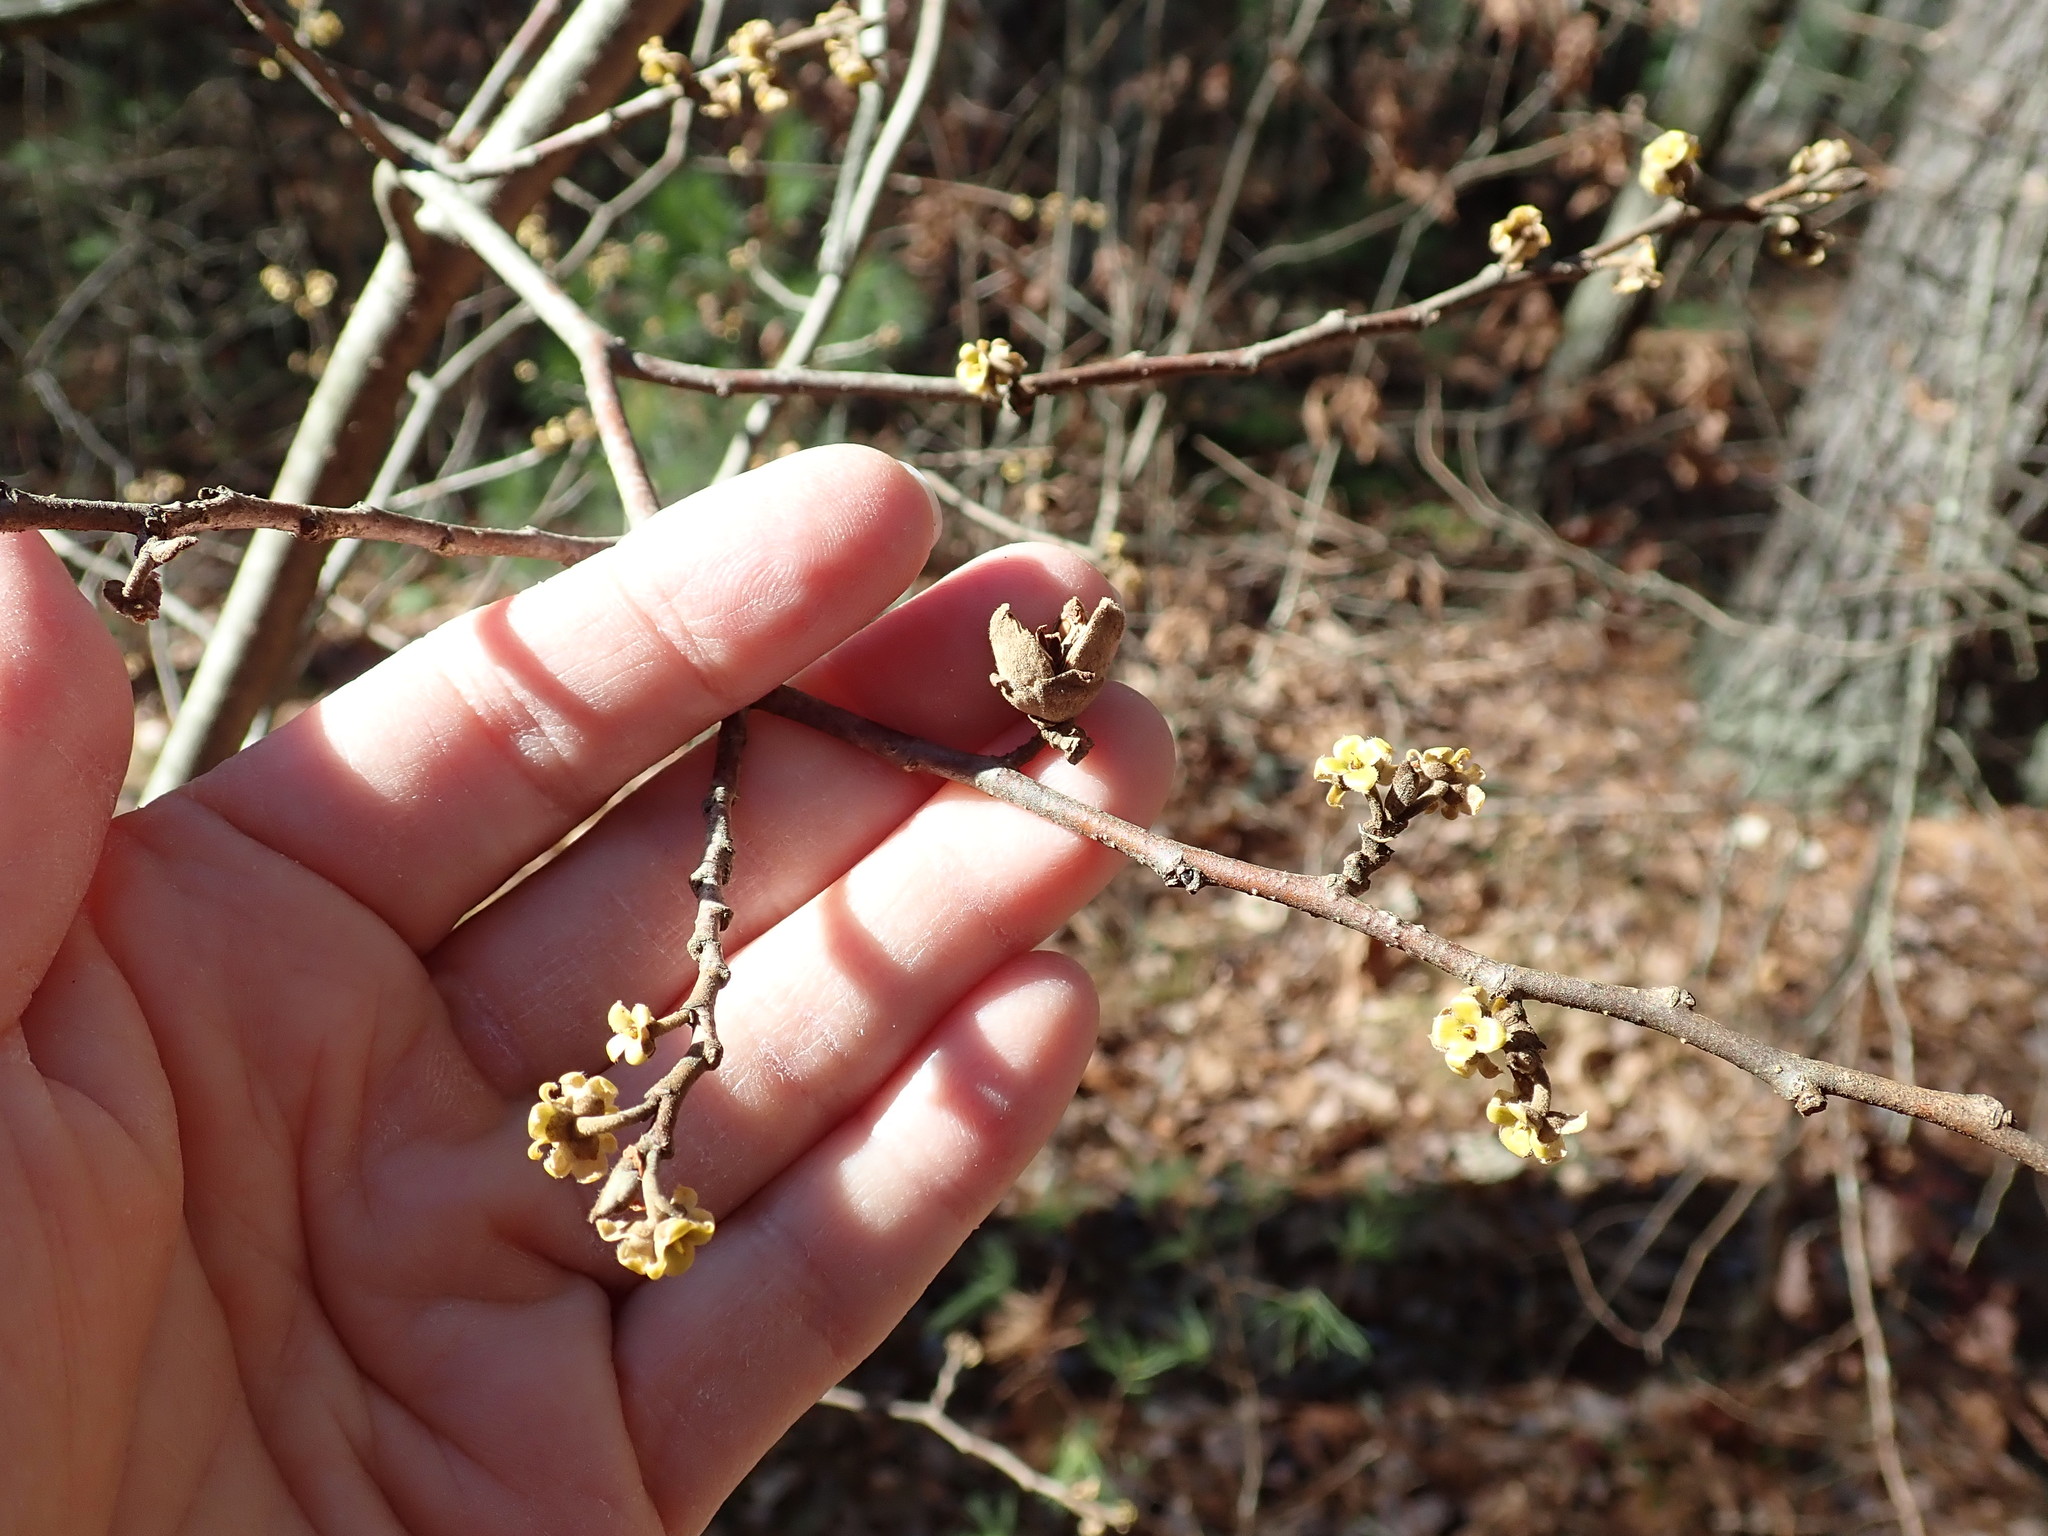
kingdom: Plantae
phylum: Tracheophyta
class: Magnoliopsida
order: Saxifragales
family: Hamamelidaceae
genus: Hamamelis
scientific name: Hamamelis virginiana
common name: Witch-hazel
